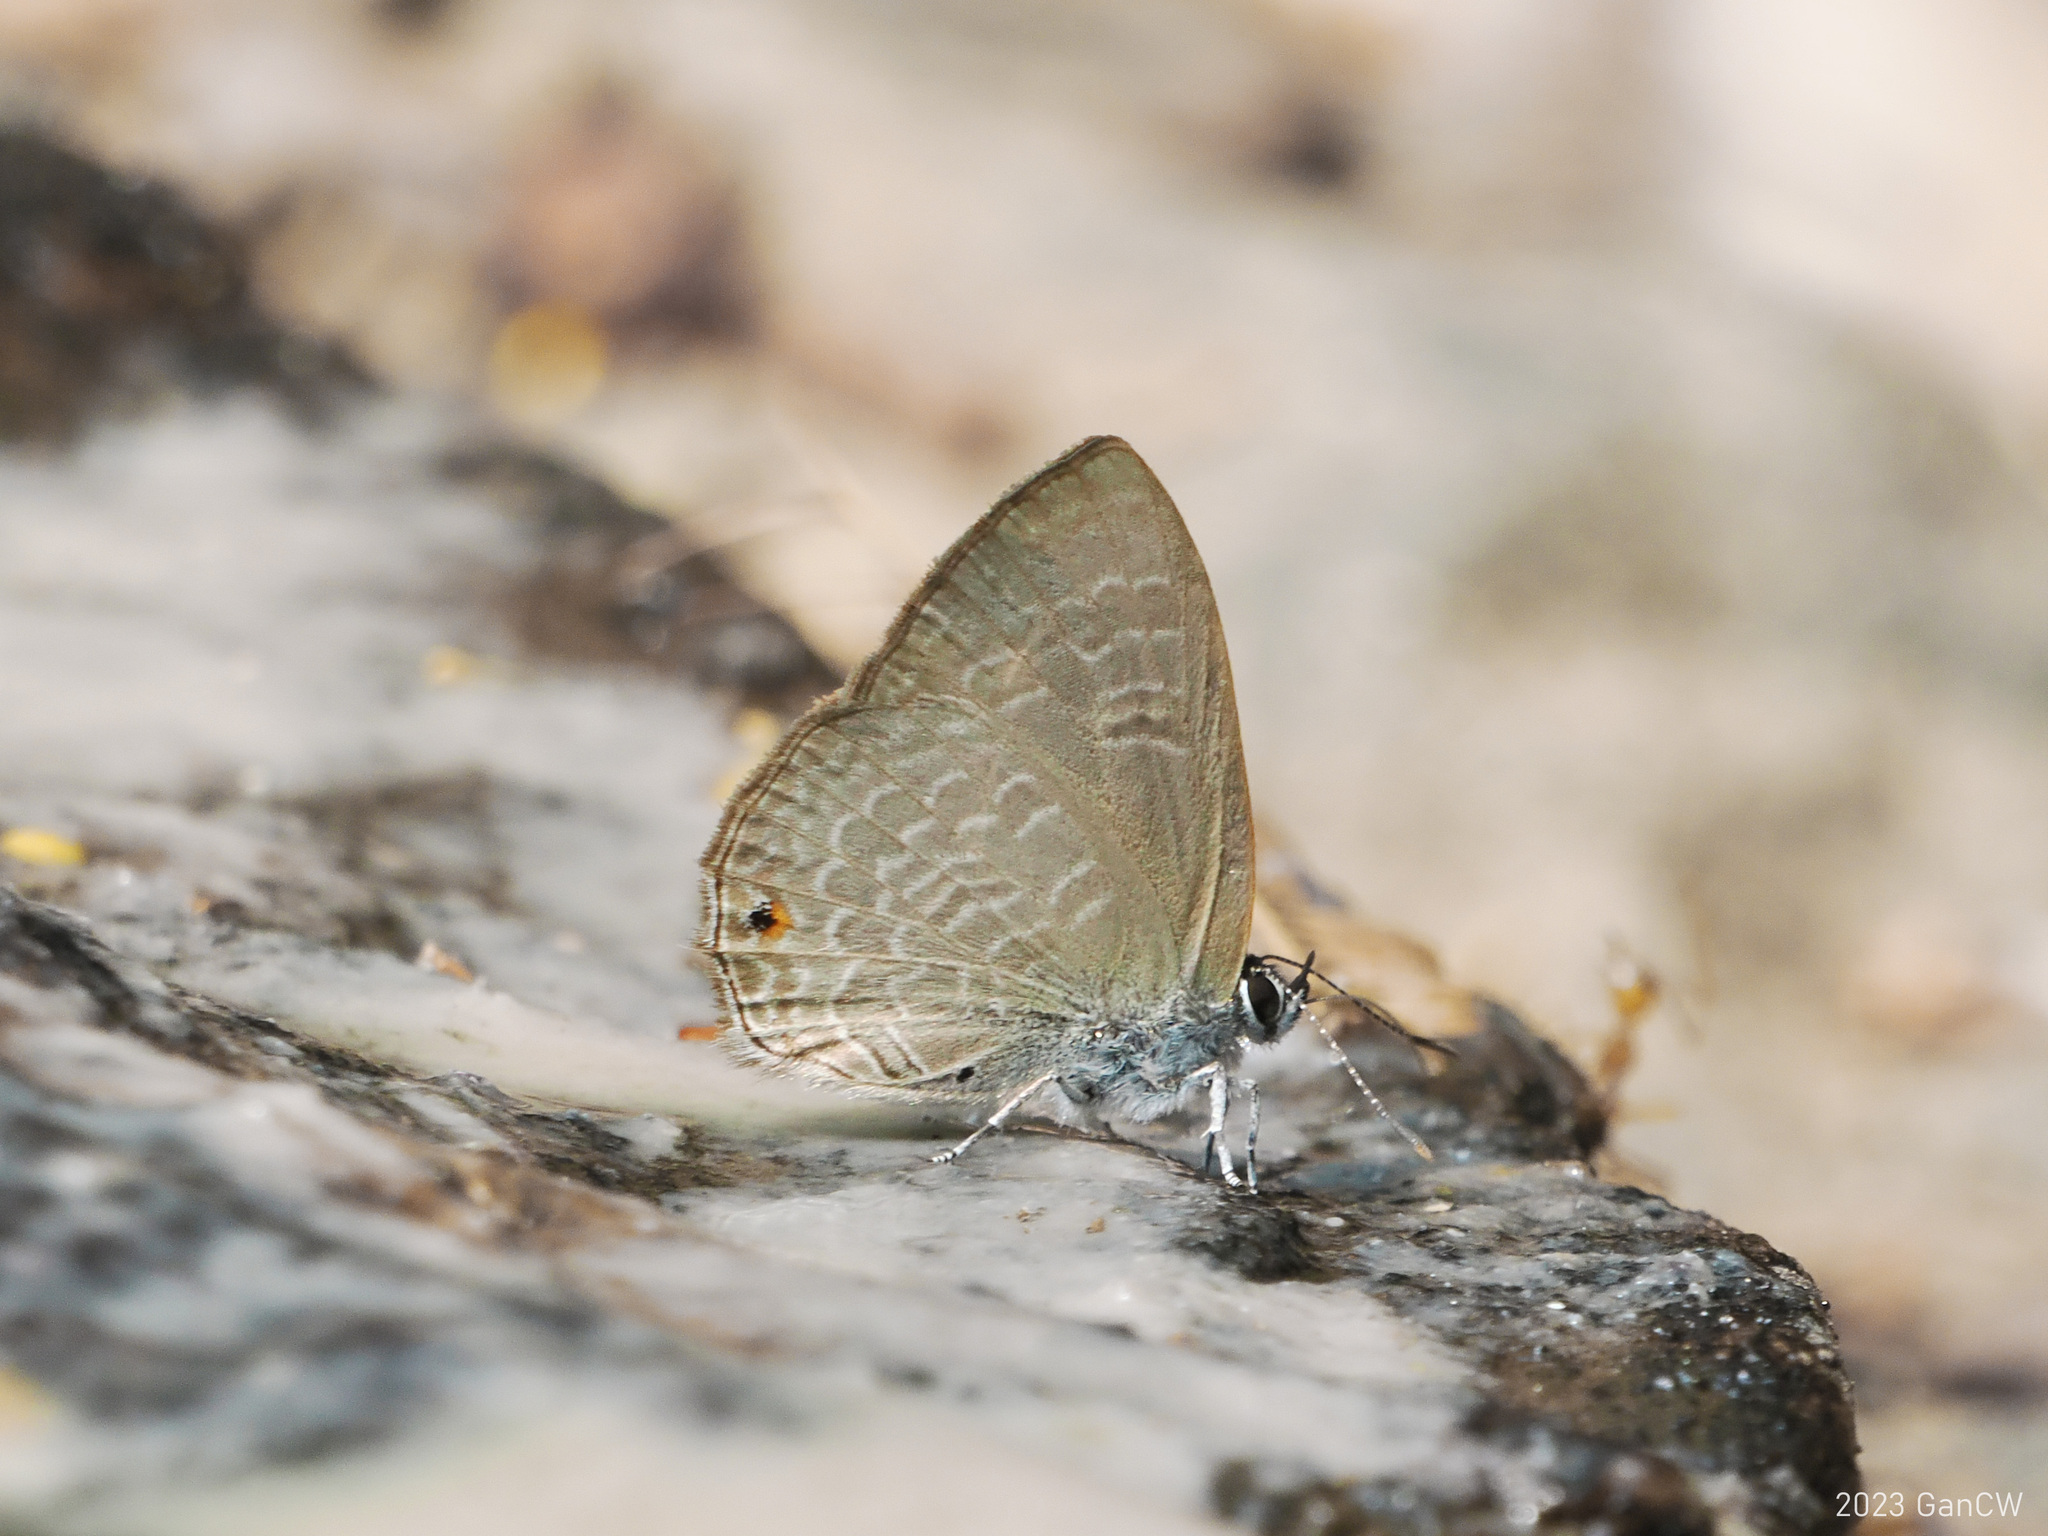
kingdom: Animalia
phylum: Arthropoda
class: Insecta
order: Lepidoptera
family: Lycaenidae
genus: Anthene
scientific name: Anthene emolus
